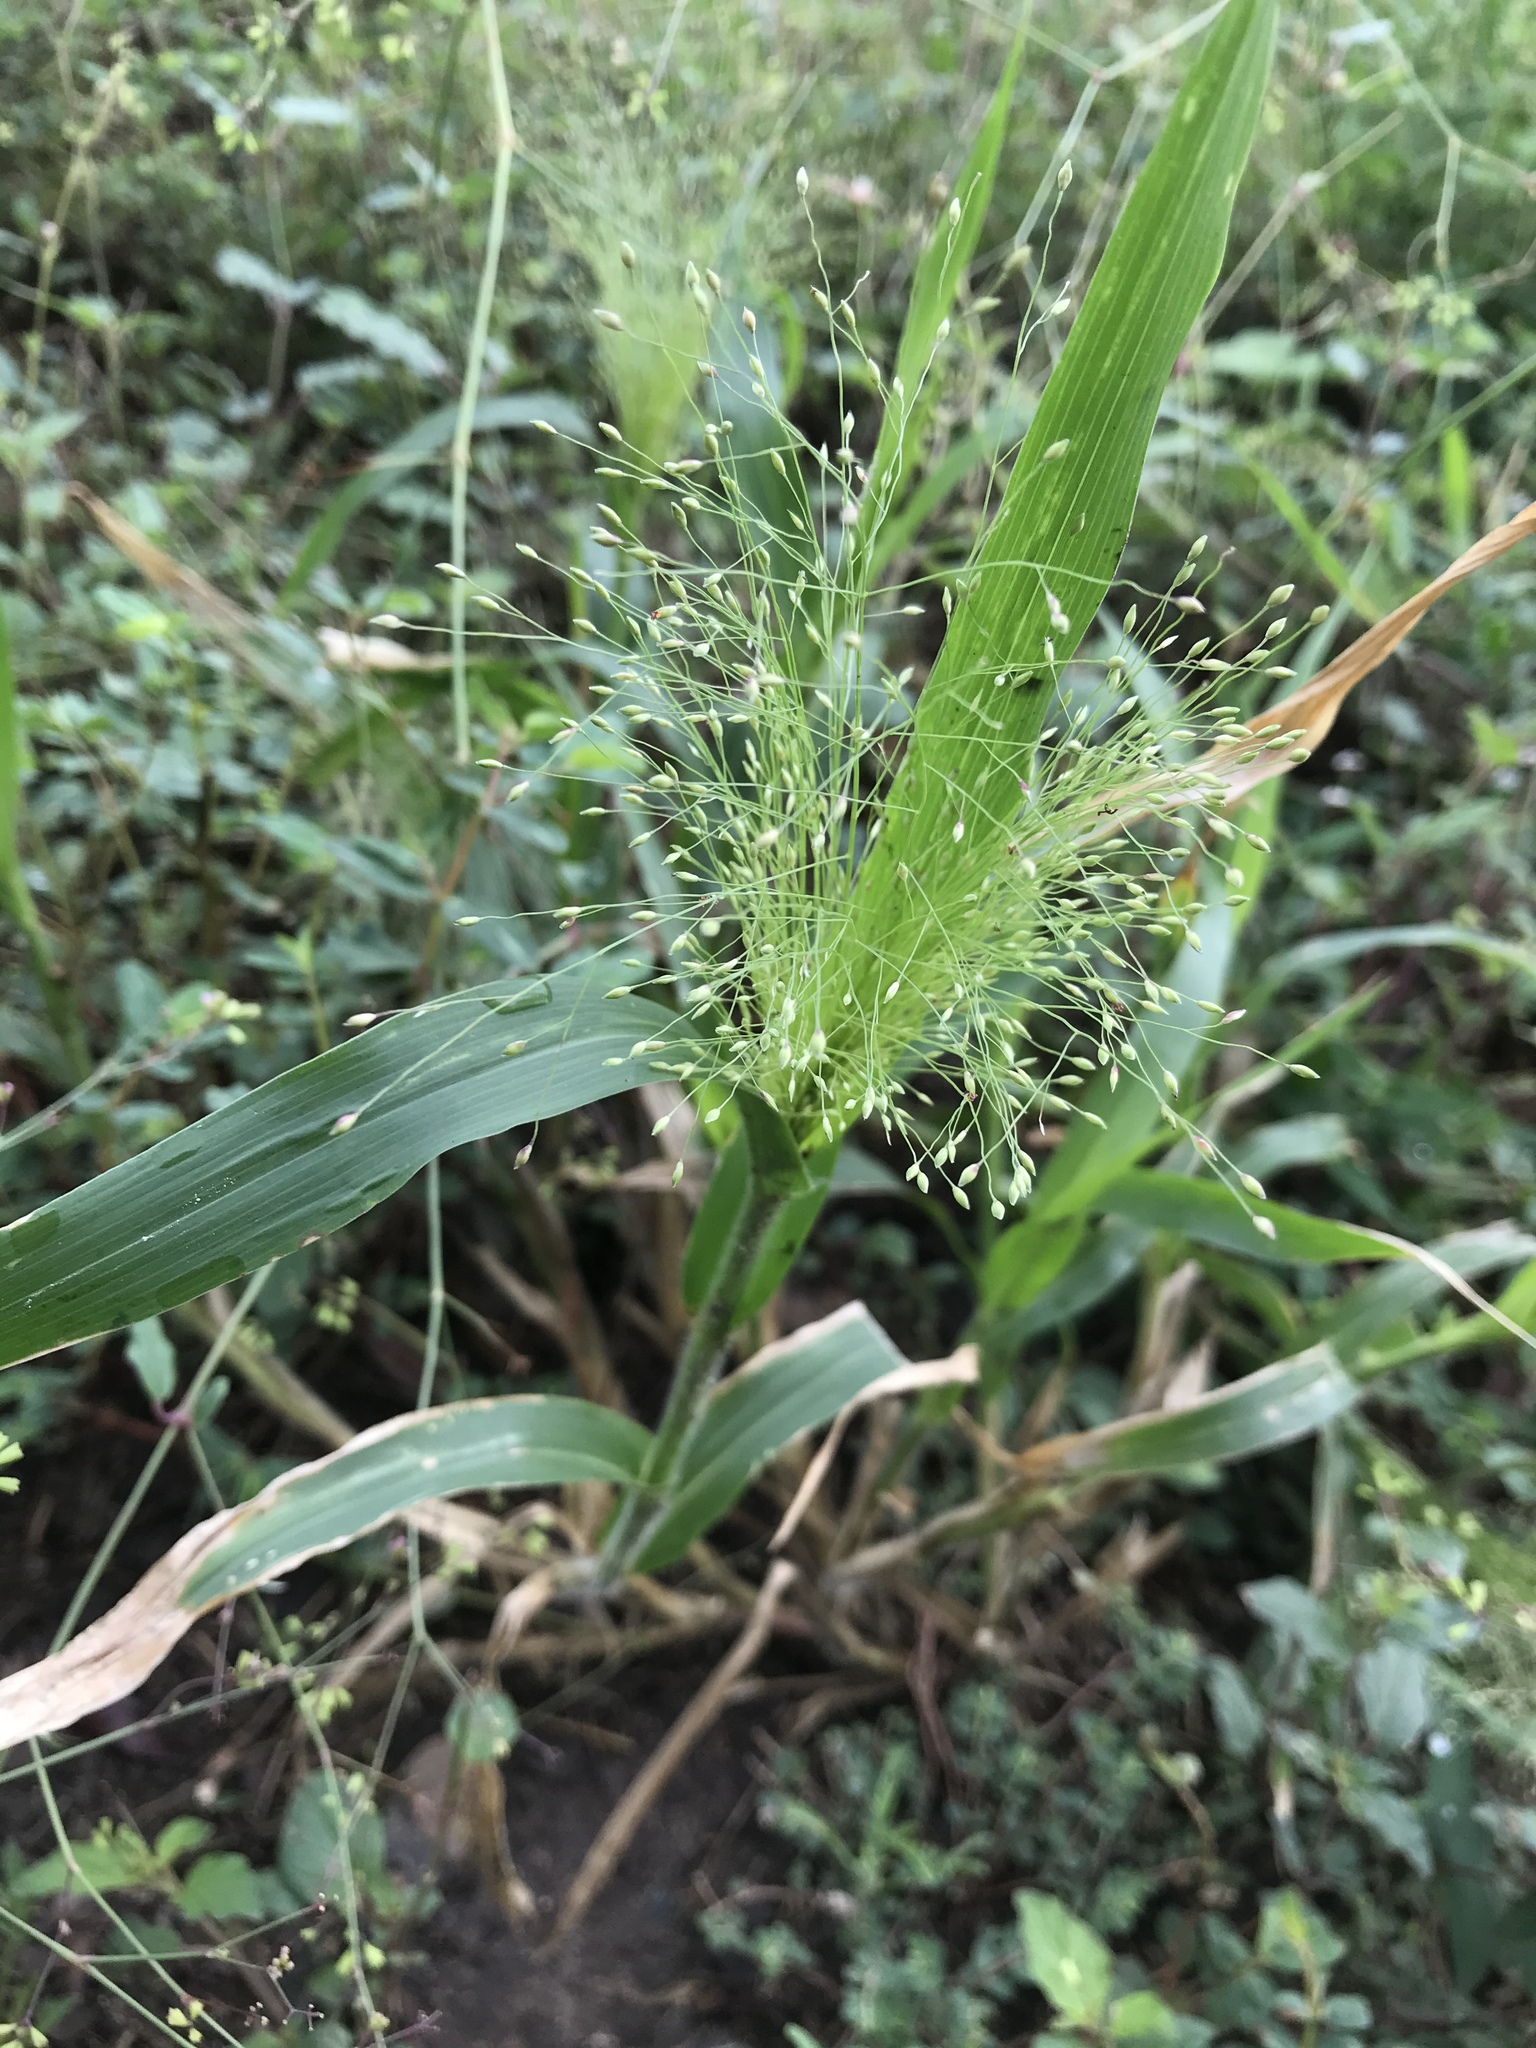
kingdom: Plantae
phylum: Tracheophyta
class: Liliopsida
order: Poales
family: Poaceae
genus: Panicum
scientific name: Panicum capillare
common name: Witch-grass
